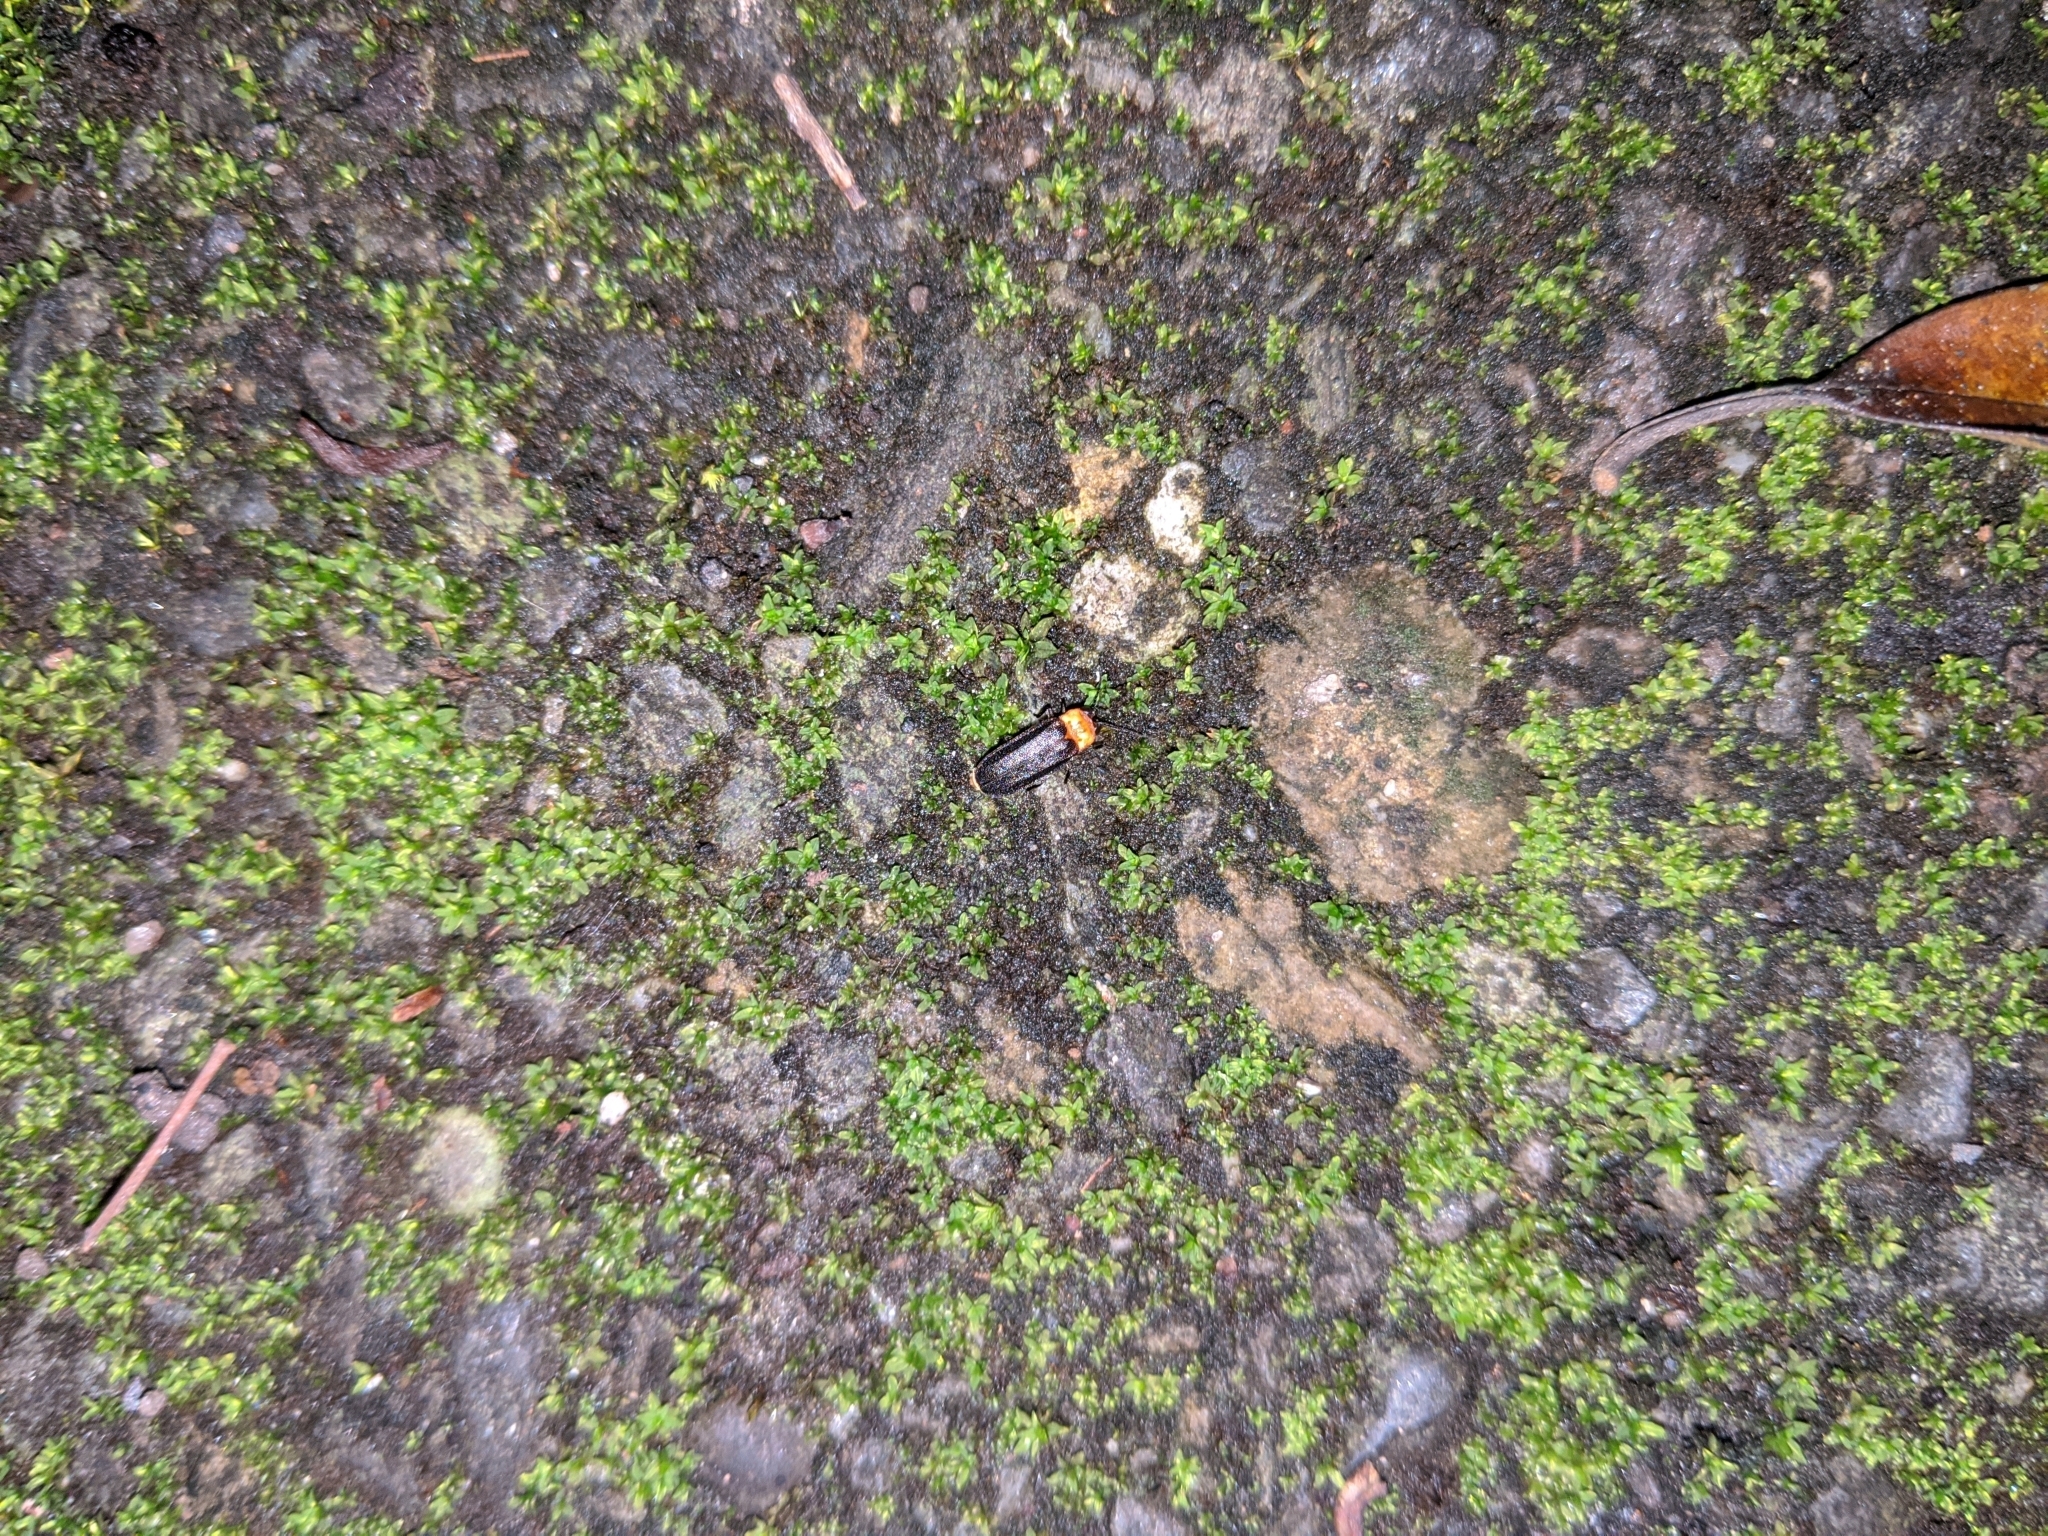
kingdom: Animalia
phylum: Arthropoda
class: Insecta
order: Coleoptera
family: Lampyridae
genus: Curtos
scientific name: Curtos mundulus
